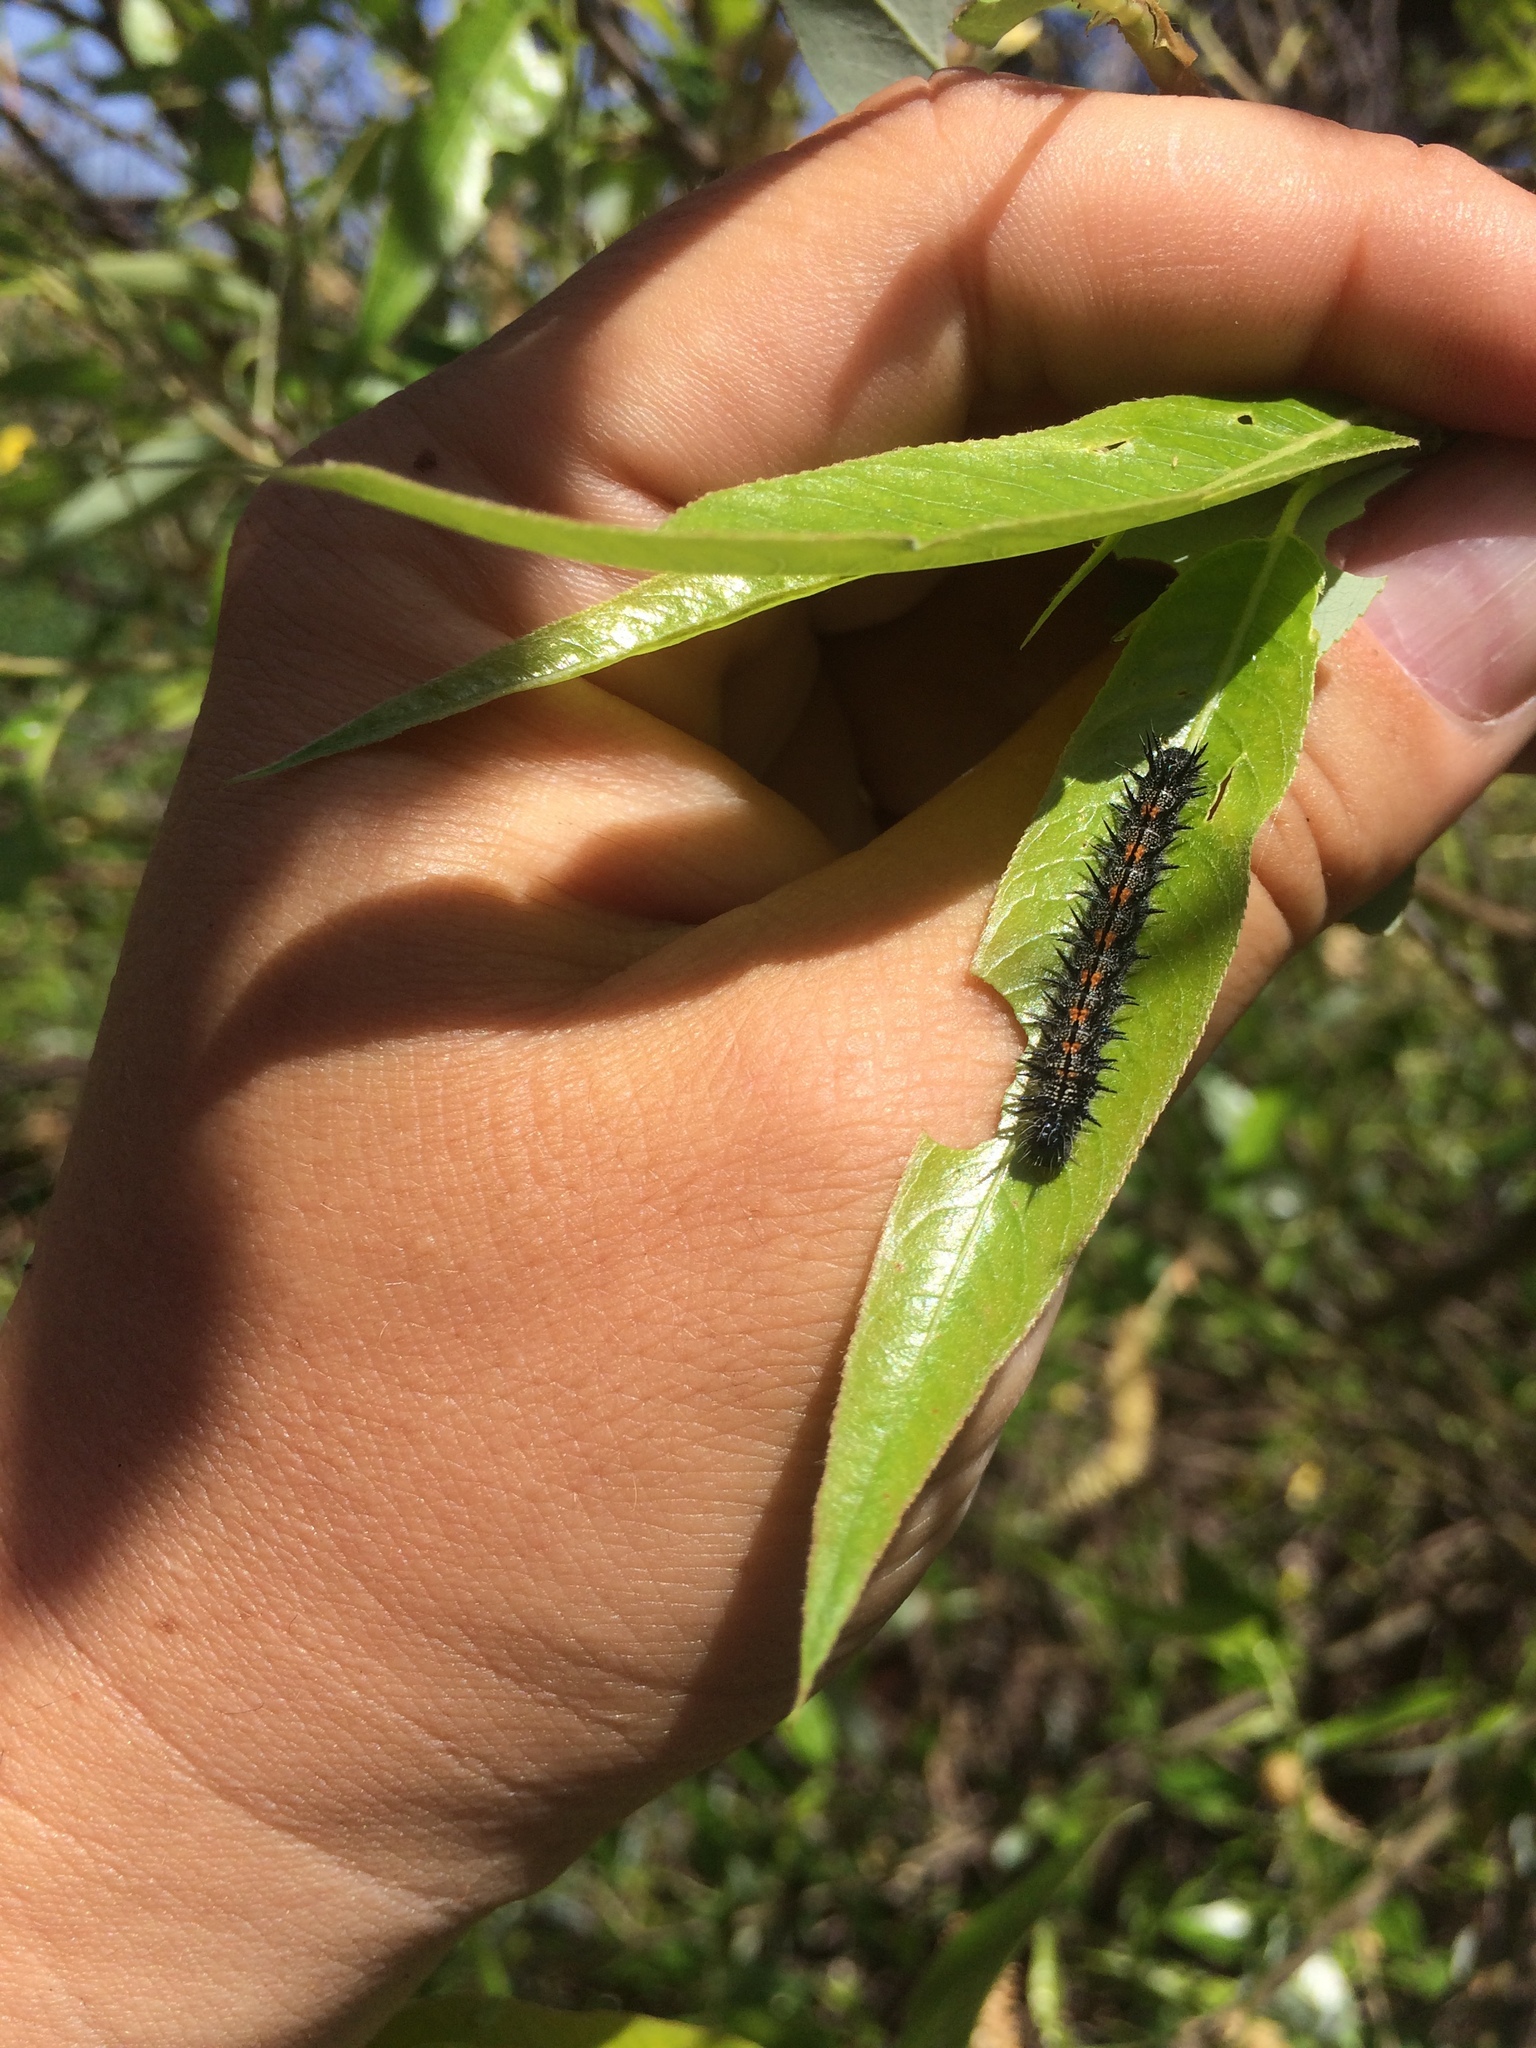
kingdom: Animalia
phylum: Arthropoda
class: Insecta
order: Lepidoptera
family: Nymphalidae
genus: Nymphalis
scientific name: Nymphalis antiopa
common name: Camberwell beauty
